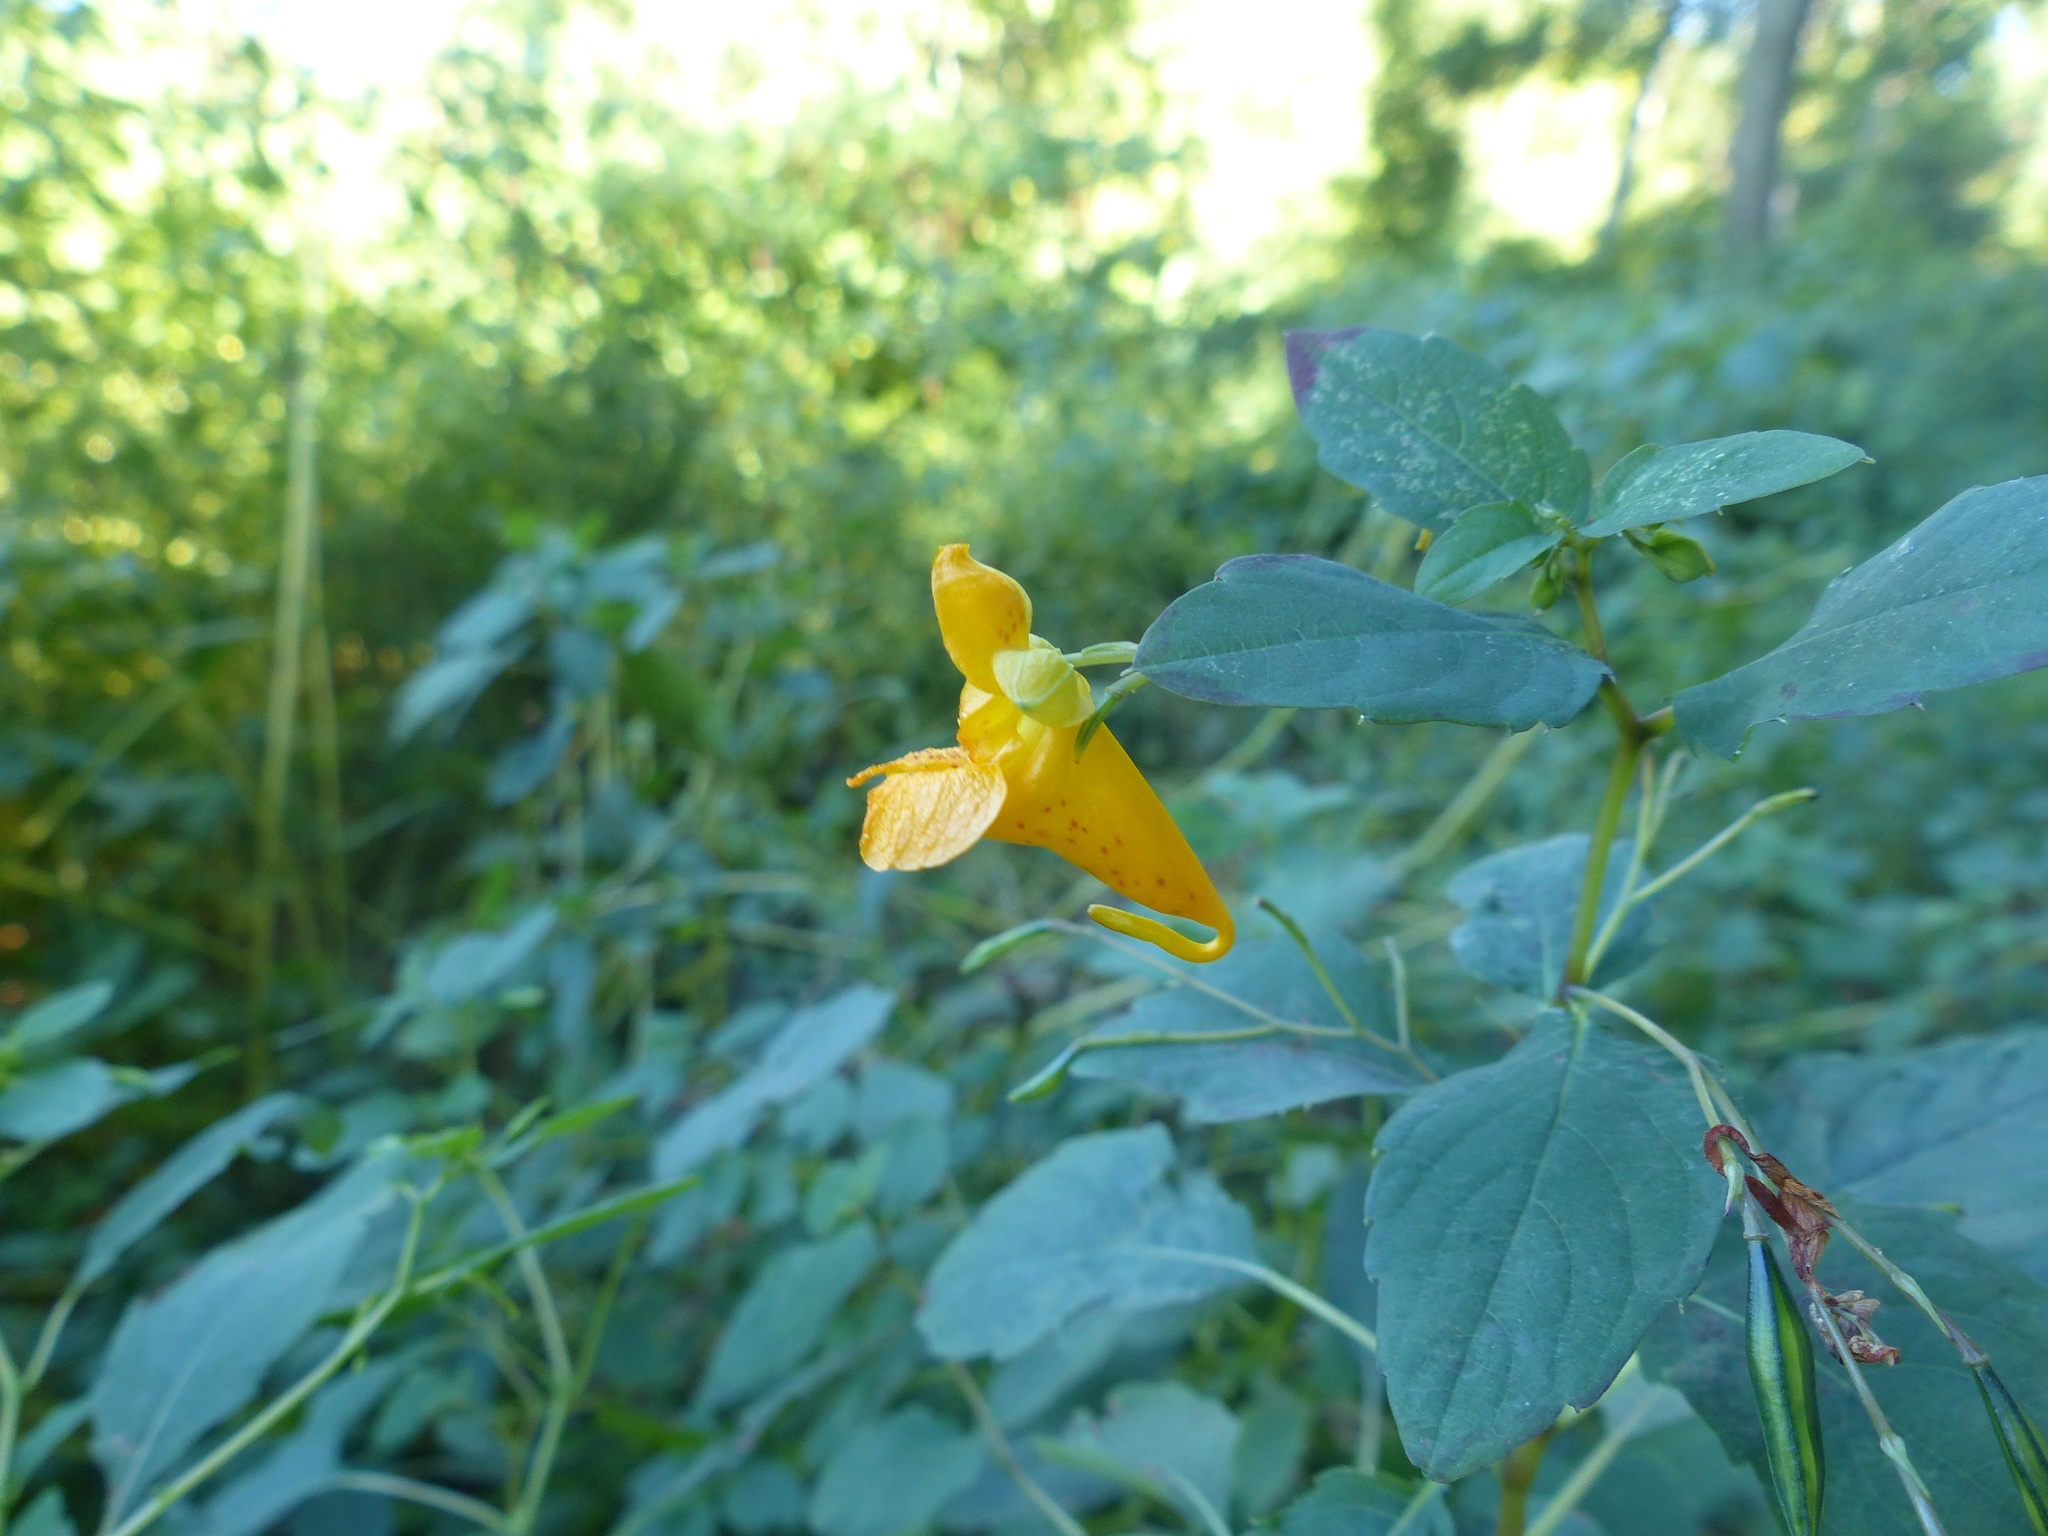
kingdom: Plantae
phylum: Tracheophyta
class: Magnoliopsida
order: Ericales
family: Balsaminaceae
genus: Impatiens
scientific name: Impatiens capensis
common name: Orange balsam
